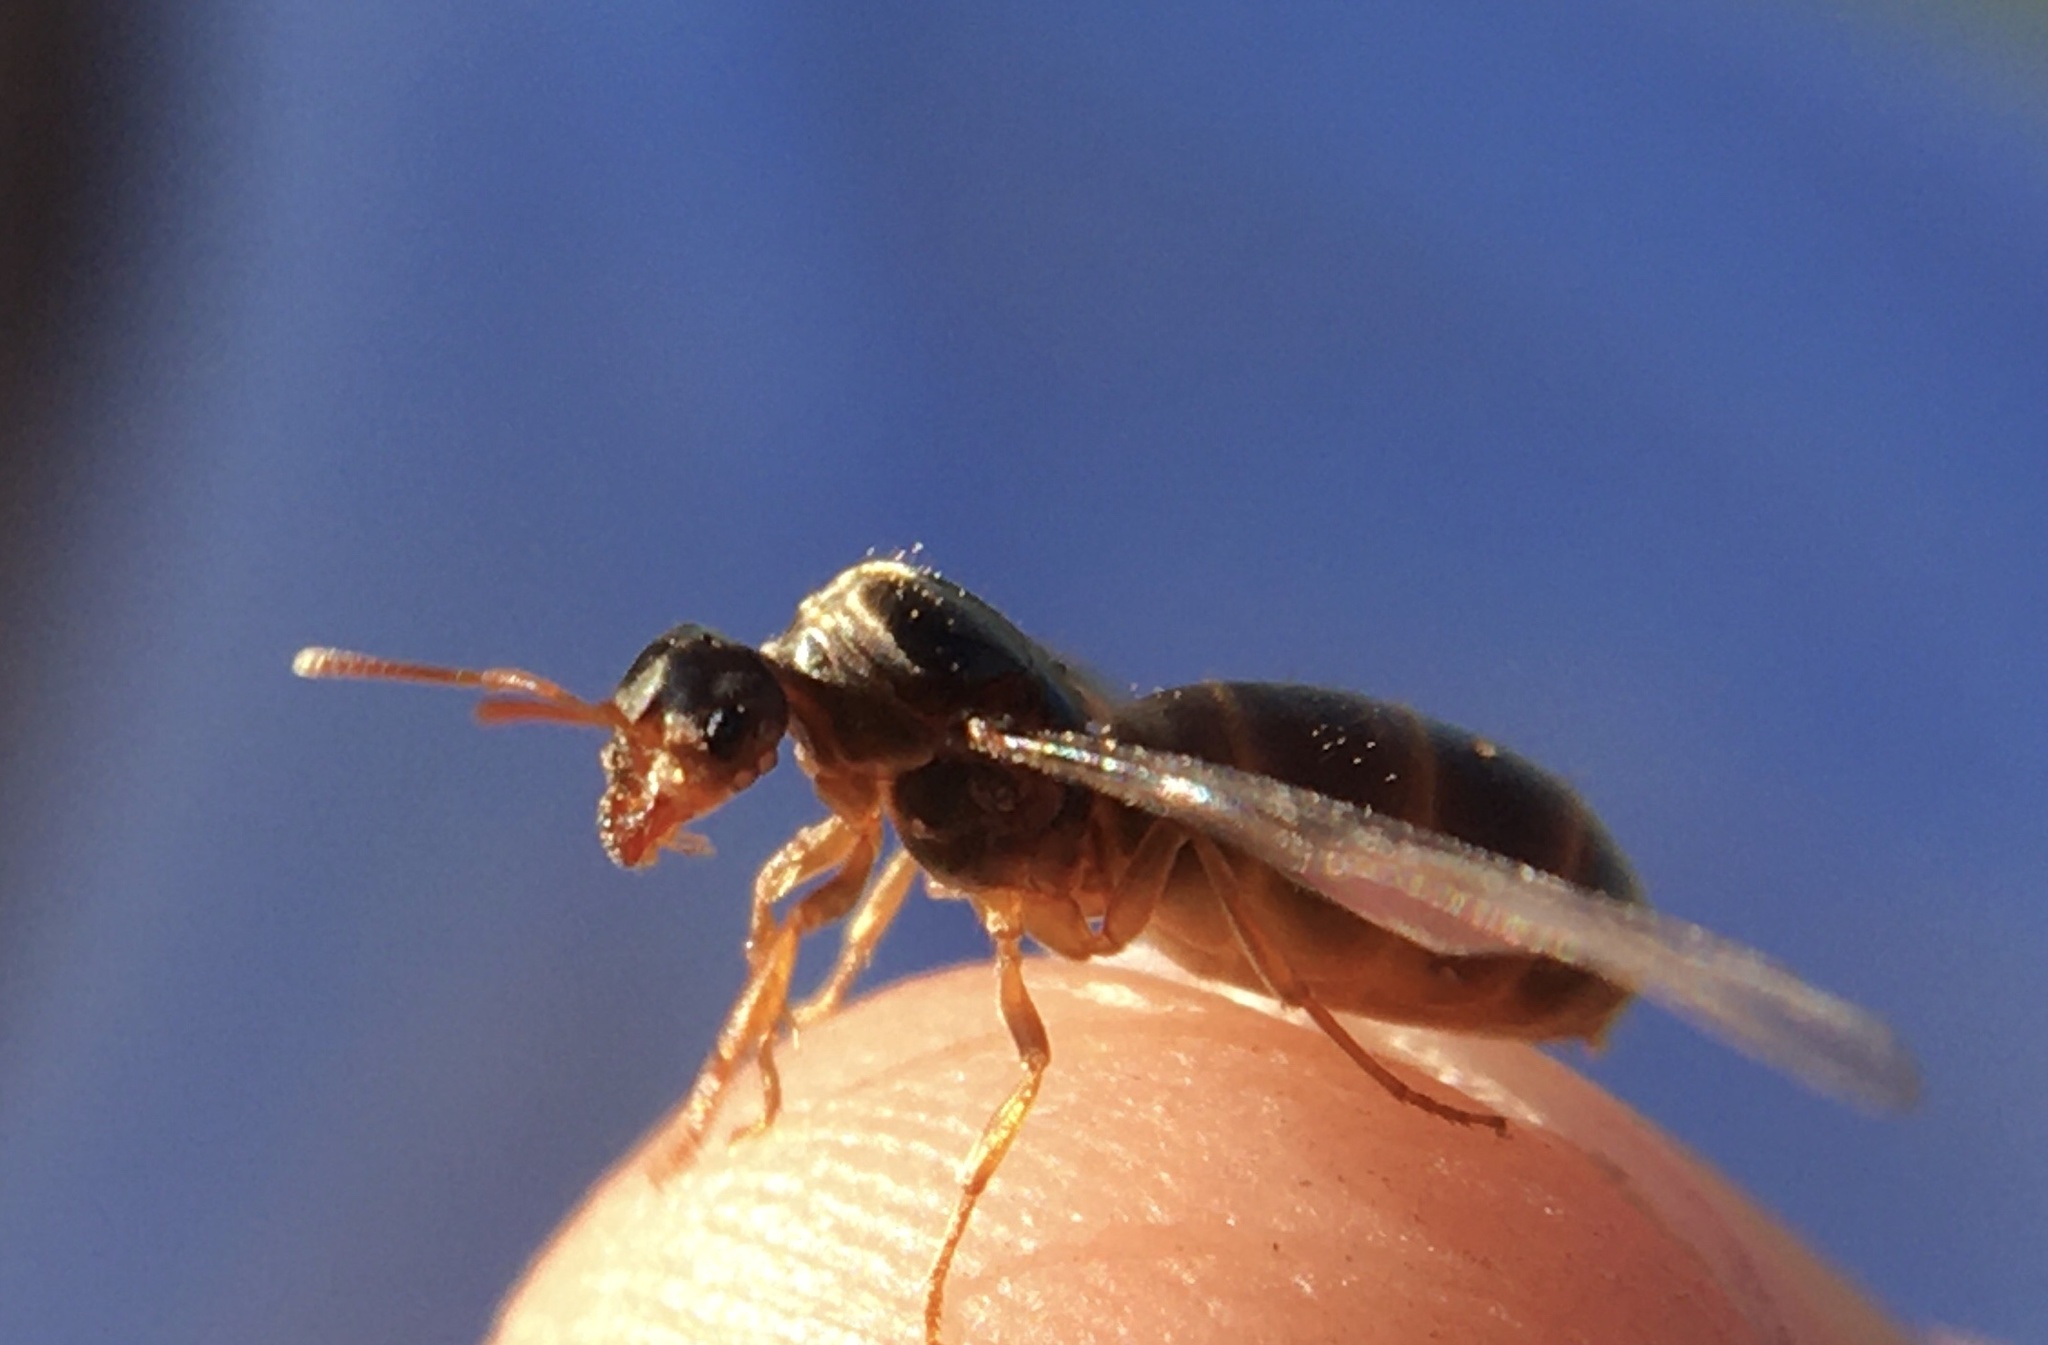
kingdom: Animalia
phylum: Arthropoda
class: Insecta
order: Hymenoptera
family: Formicidae
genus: Lasius
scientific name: Lasius flavus
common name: Blond field ant
